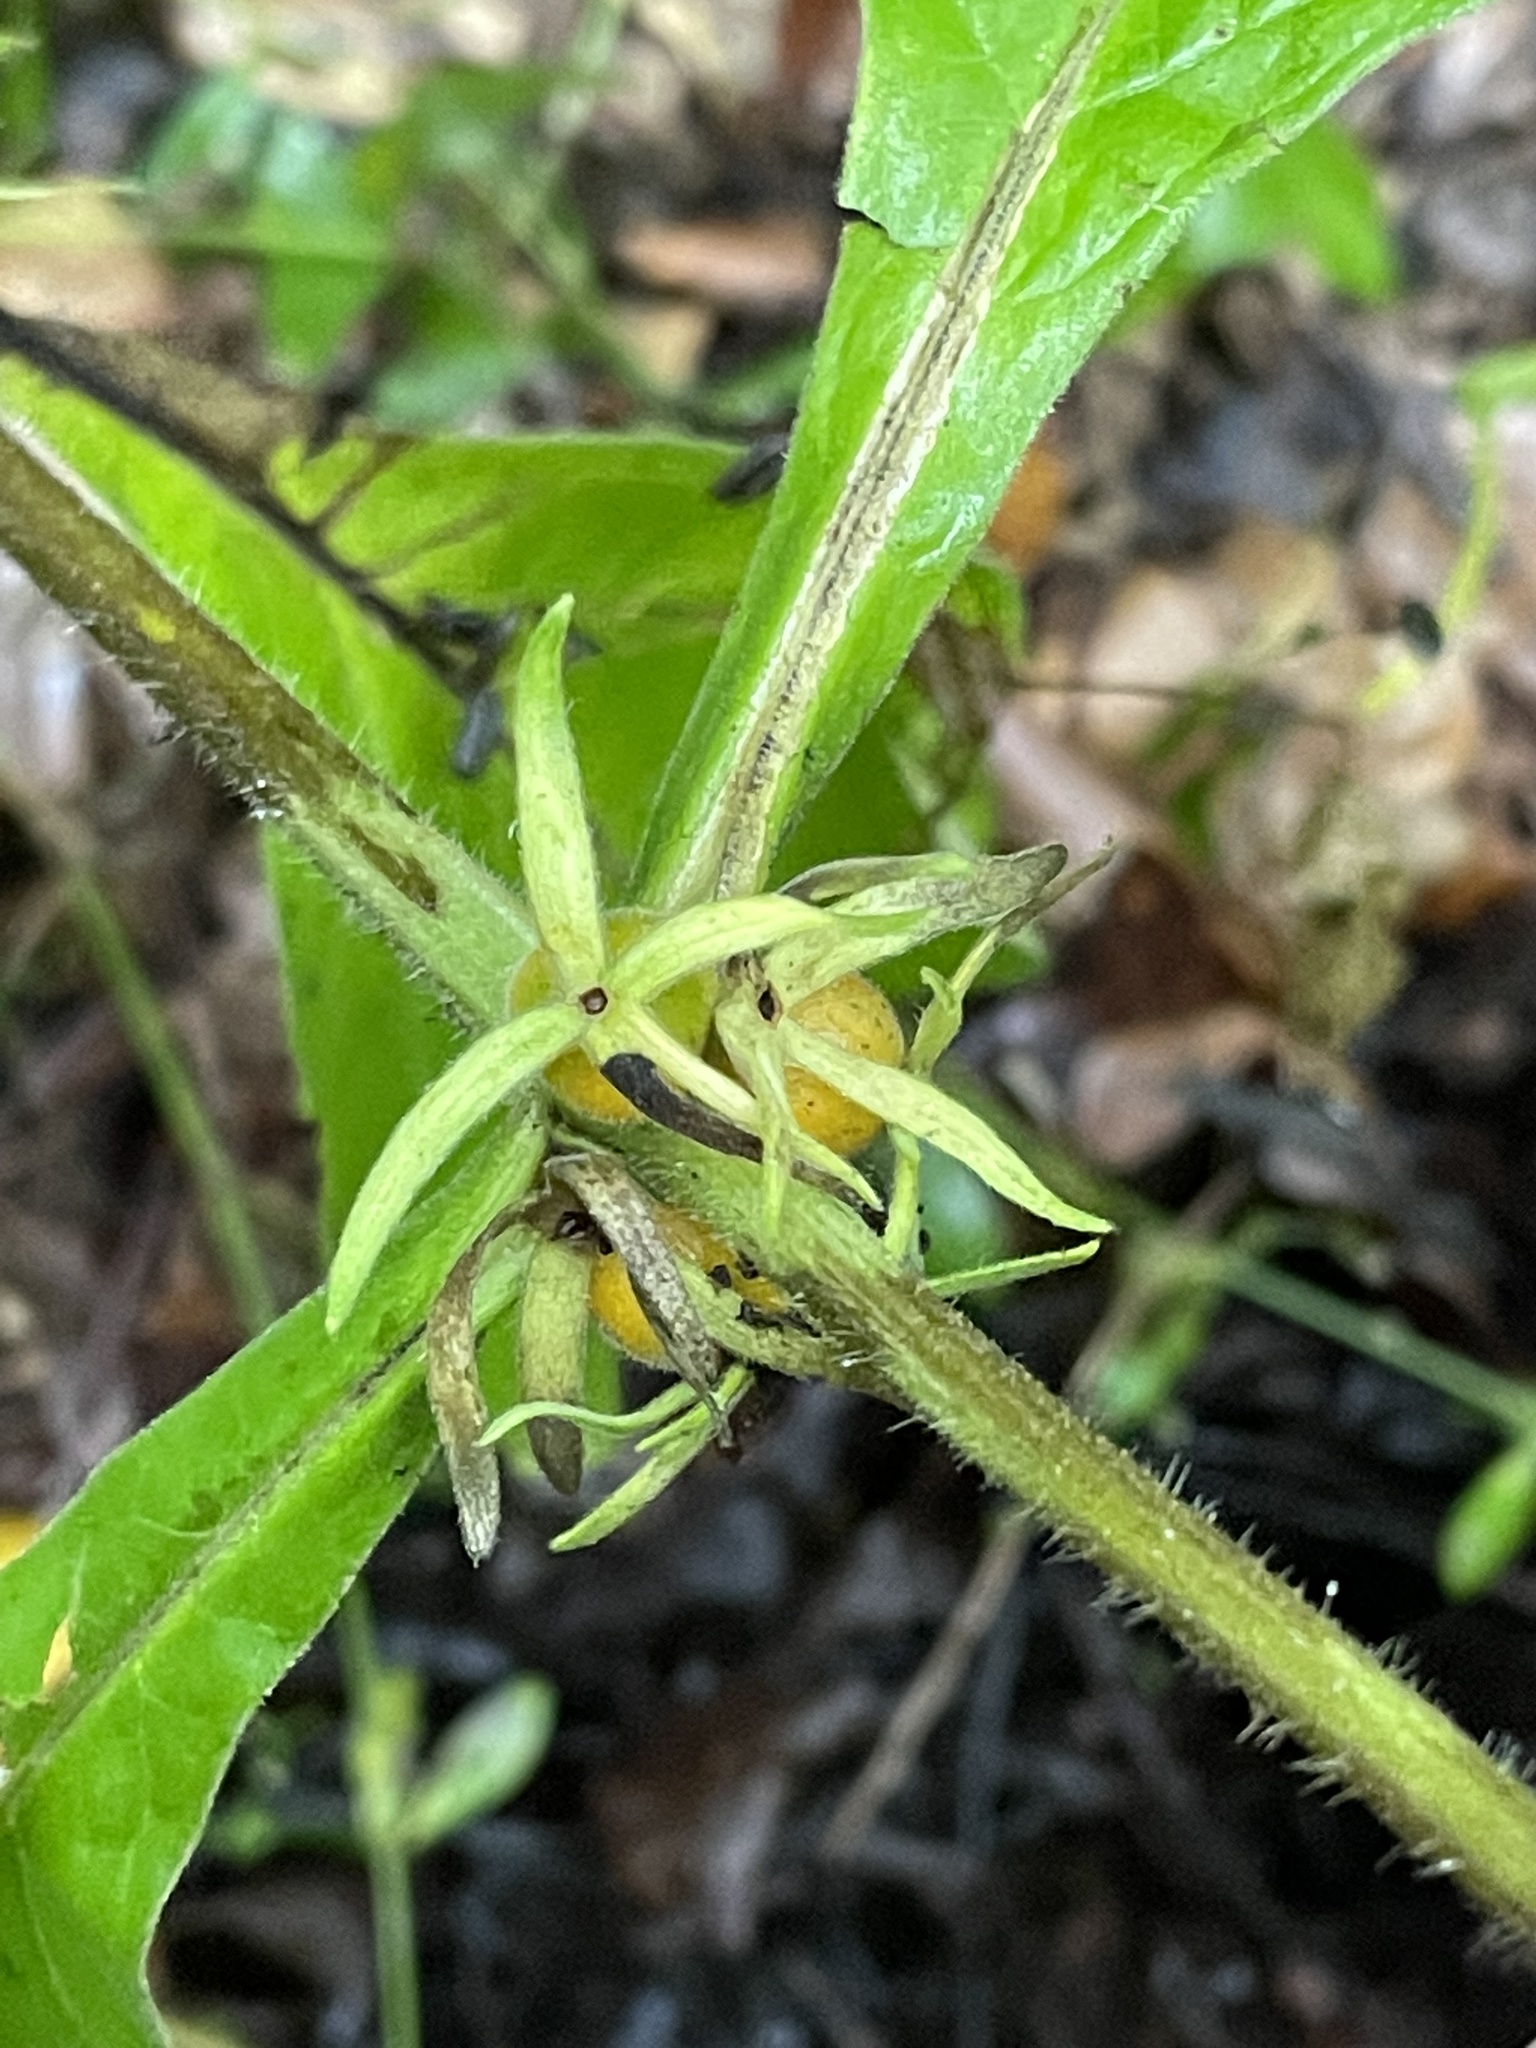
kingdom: Plantae
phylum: Tracheophyta
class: Magnoliopsida
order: Dipsacales
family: Caprifoliaceae
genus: Triosteum
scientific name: Triosteum aurantiacum
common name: Coffee tinker's-weed
